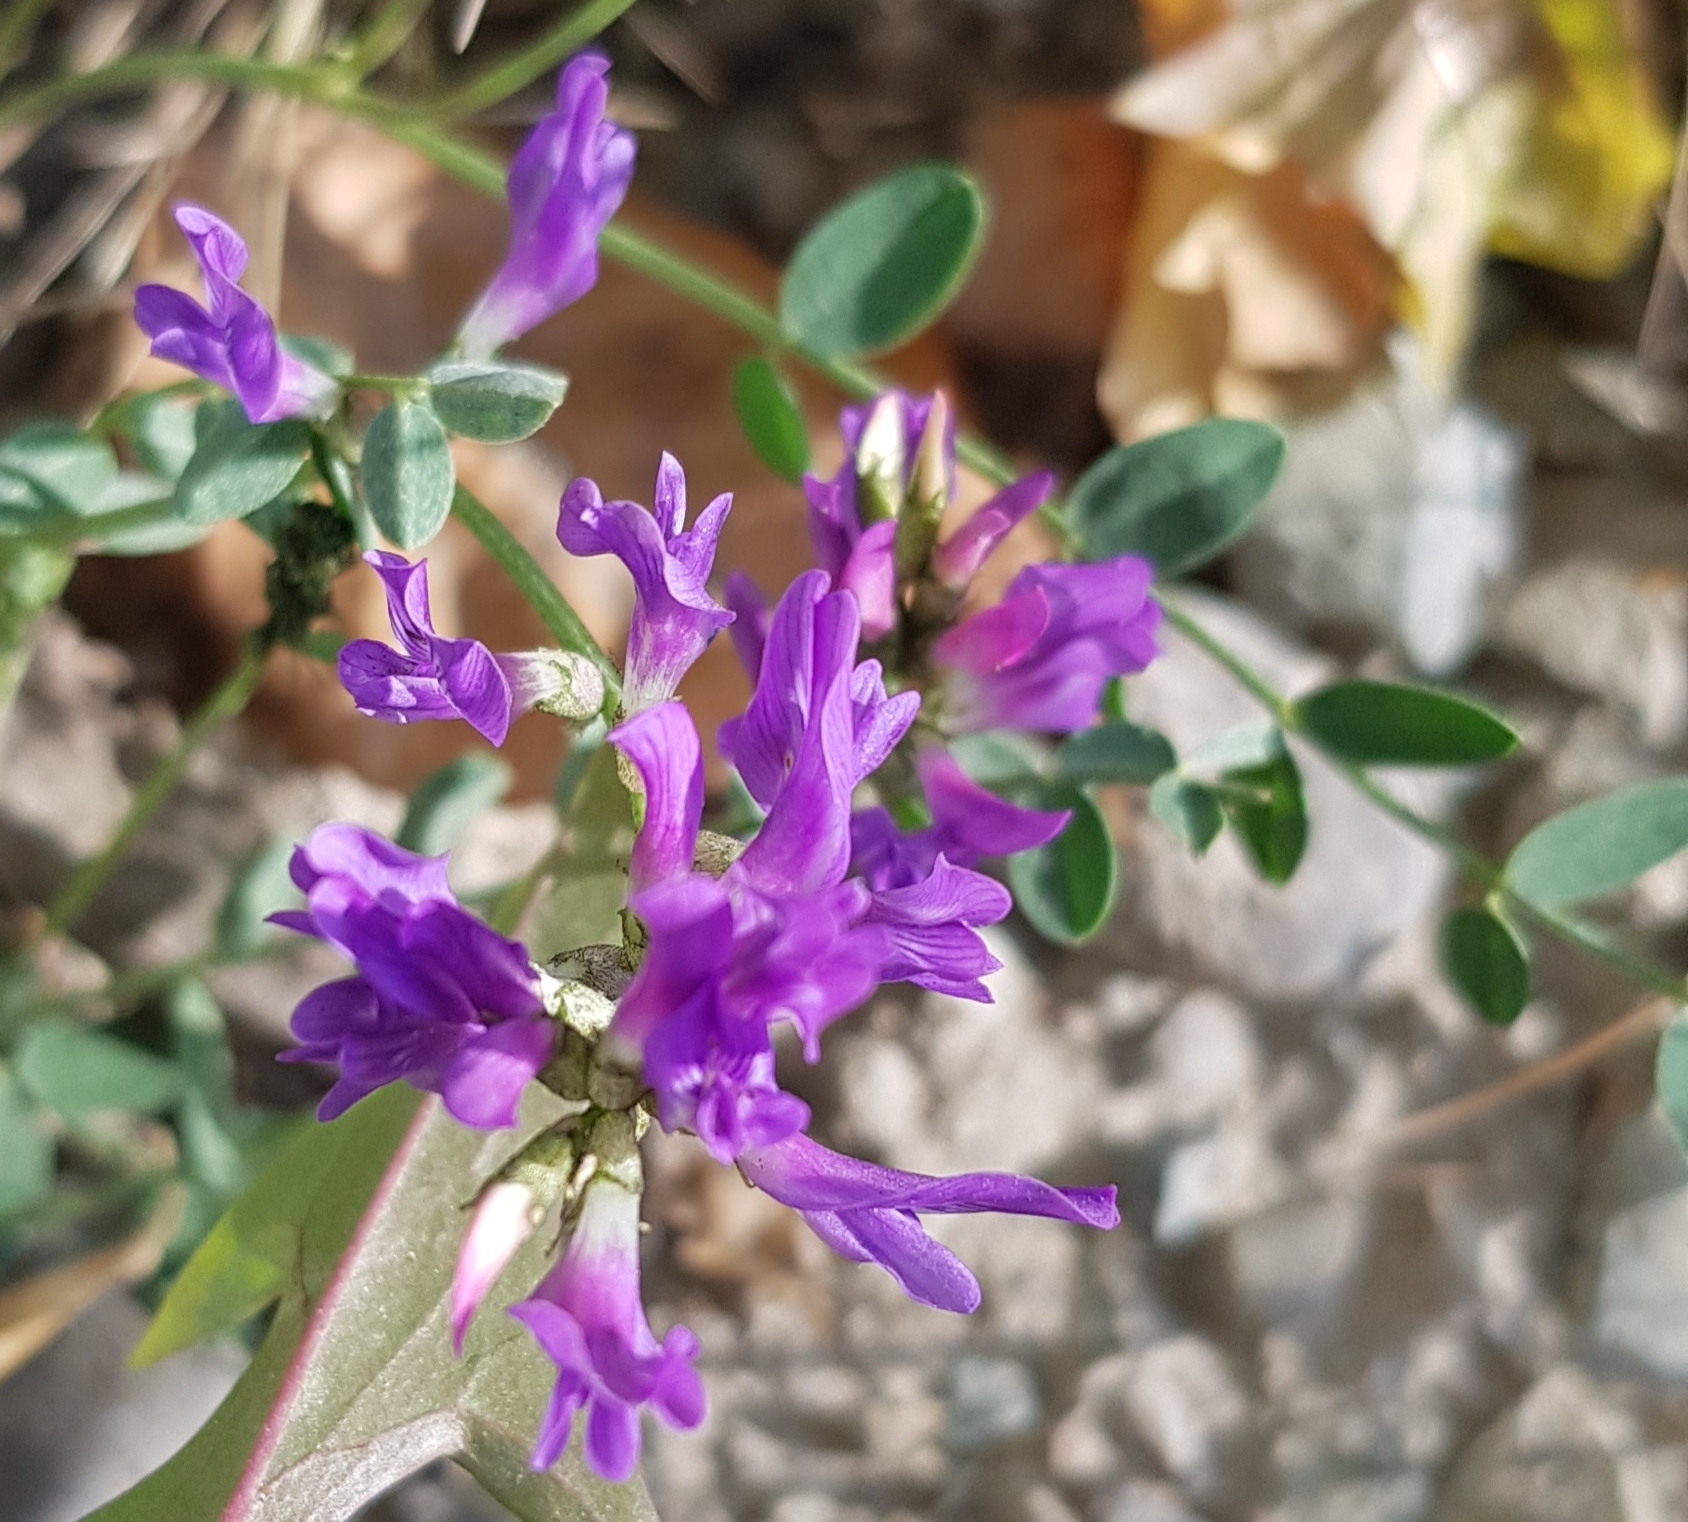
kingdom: Plantae
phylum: Tracheophyta
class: Magnoliopsida
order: Fabales
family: Fabaceae
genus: Astragalus
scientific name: Astragalus laxmannii
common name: Laxmann's milk-vetch
